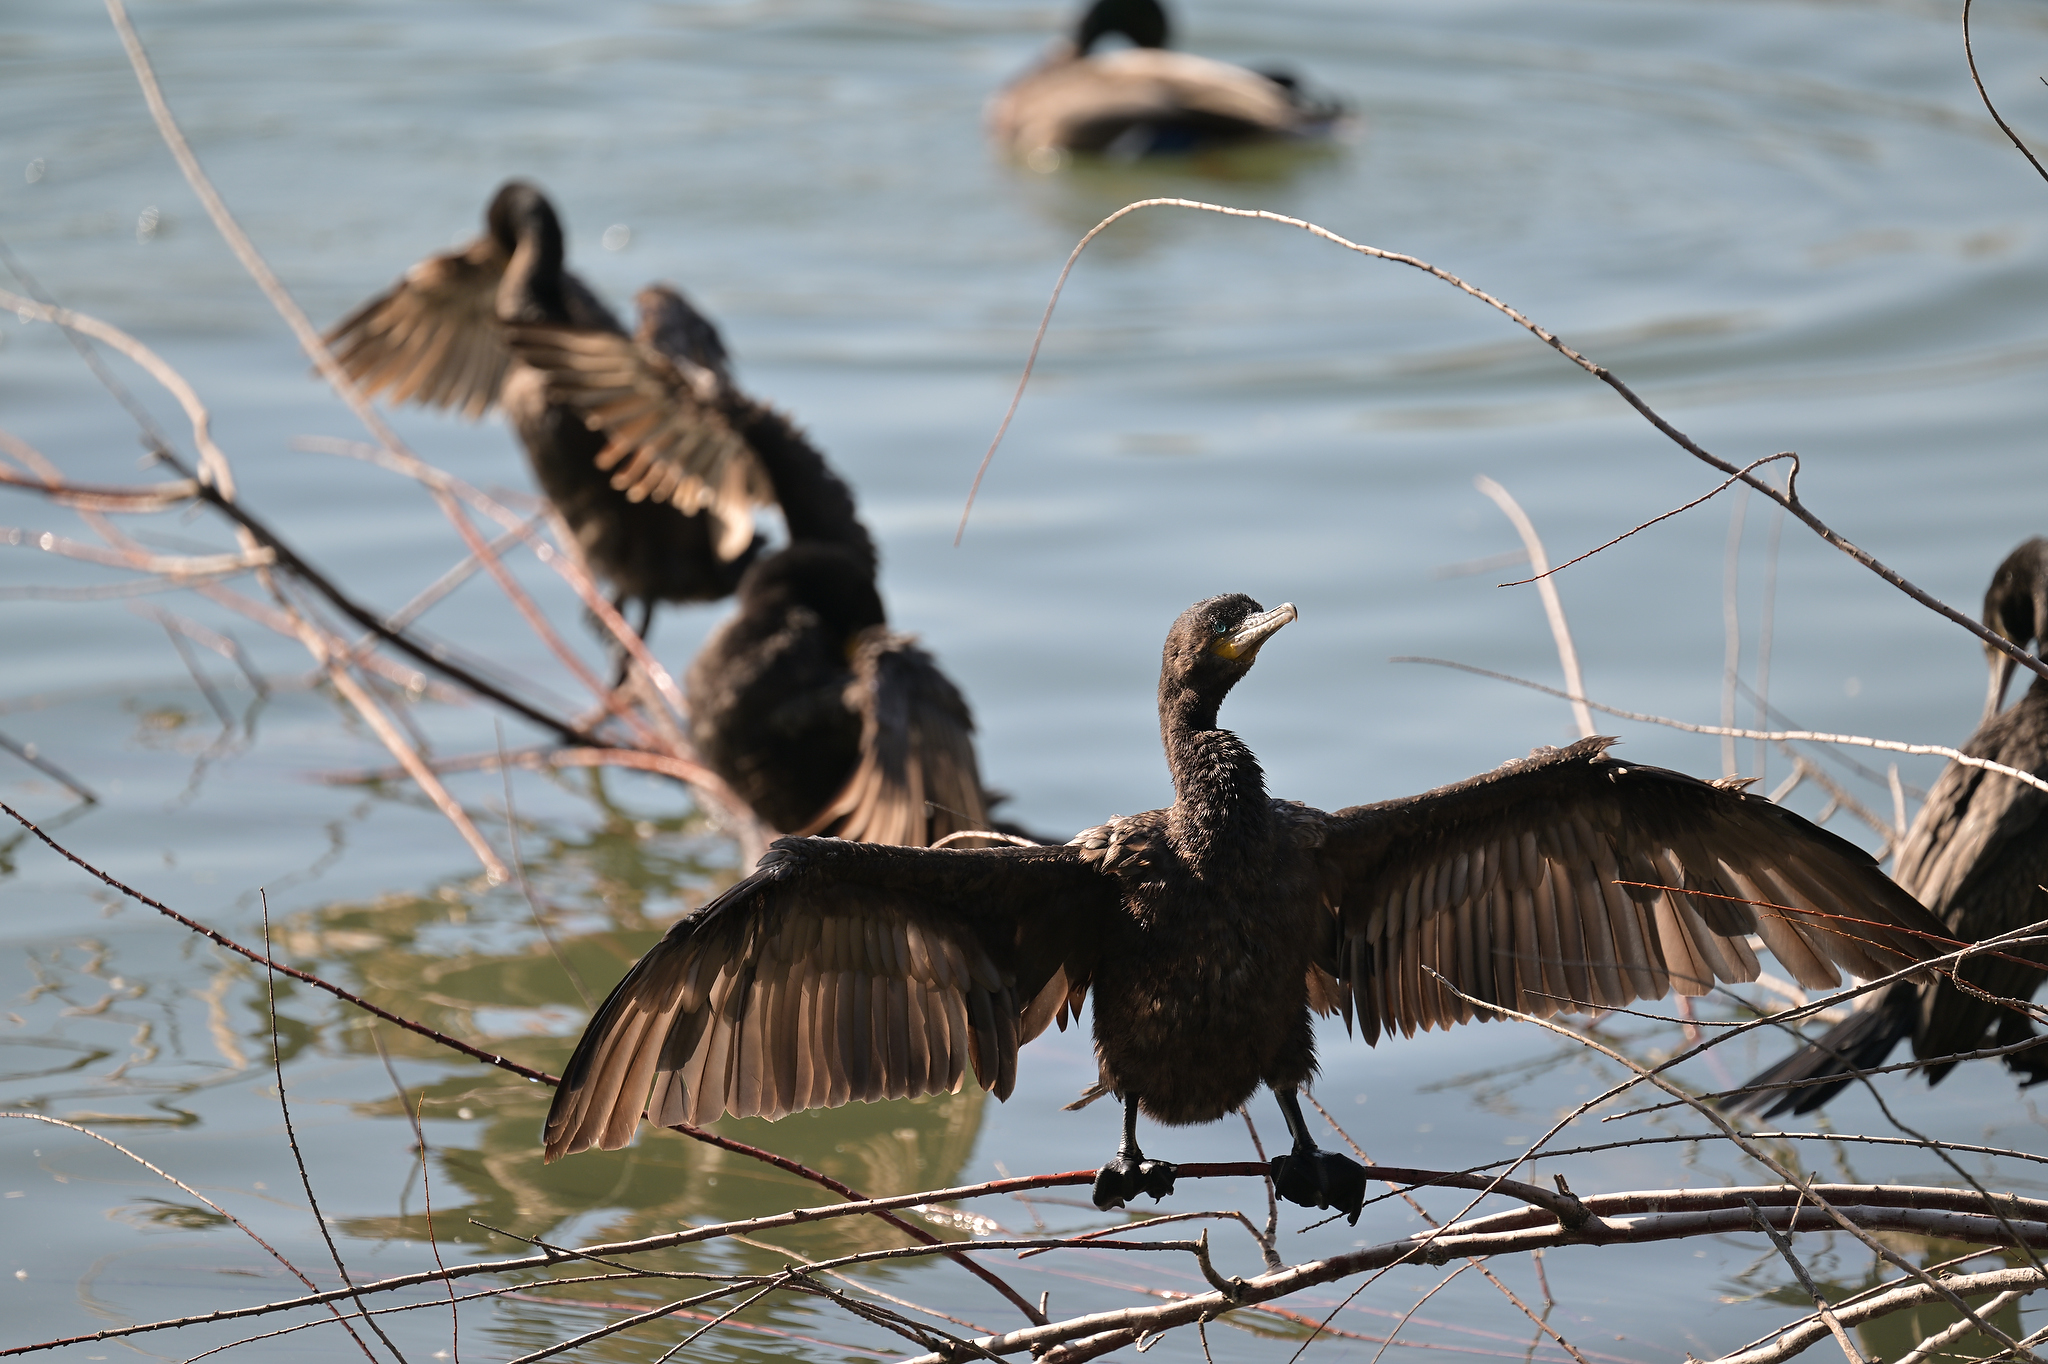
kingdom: Animalia
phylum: Chordata
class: Aves
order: Suliformes
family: Phalacrocoracidae
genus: Phalacrocorax
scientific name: Phalacrocorax brasilianus
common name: Neotropic cormorant
